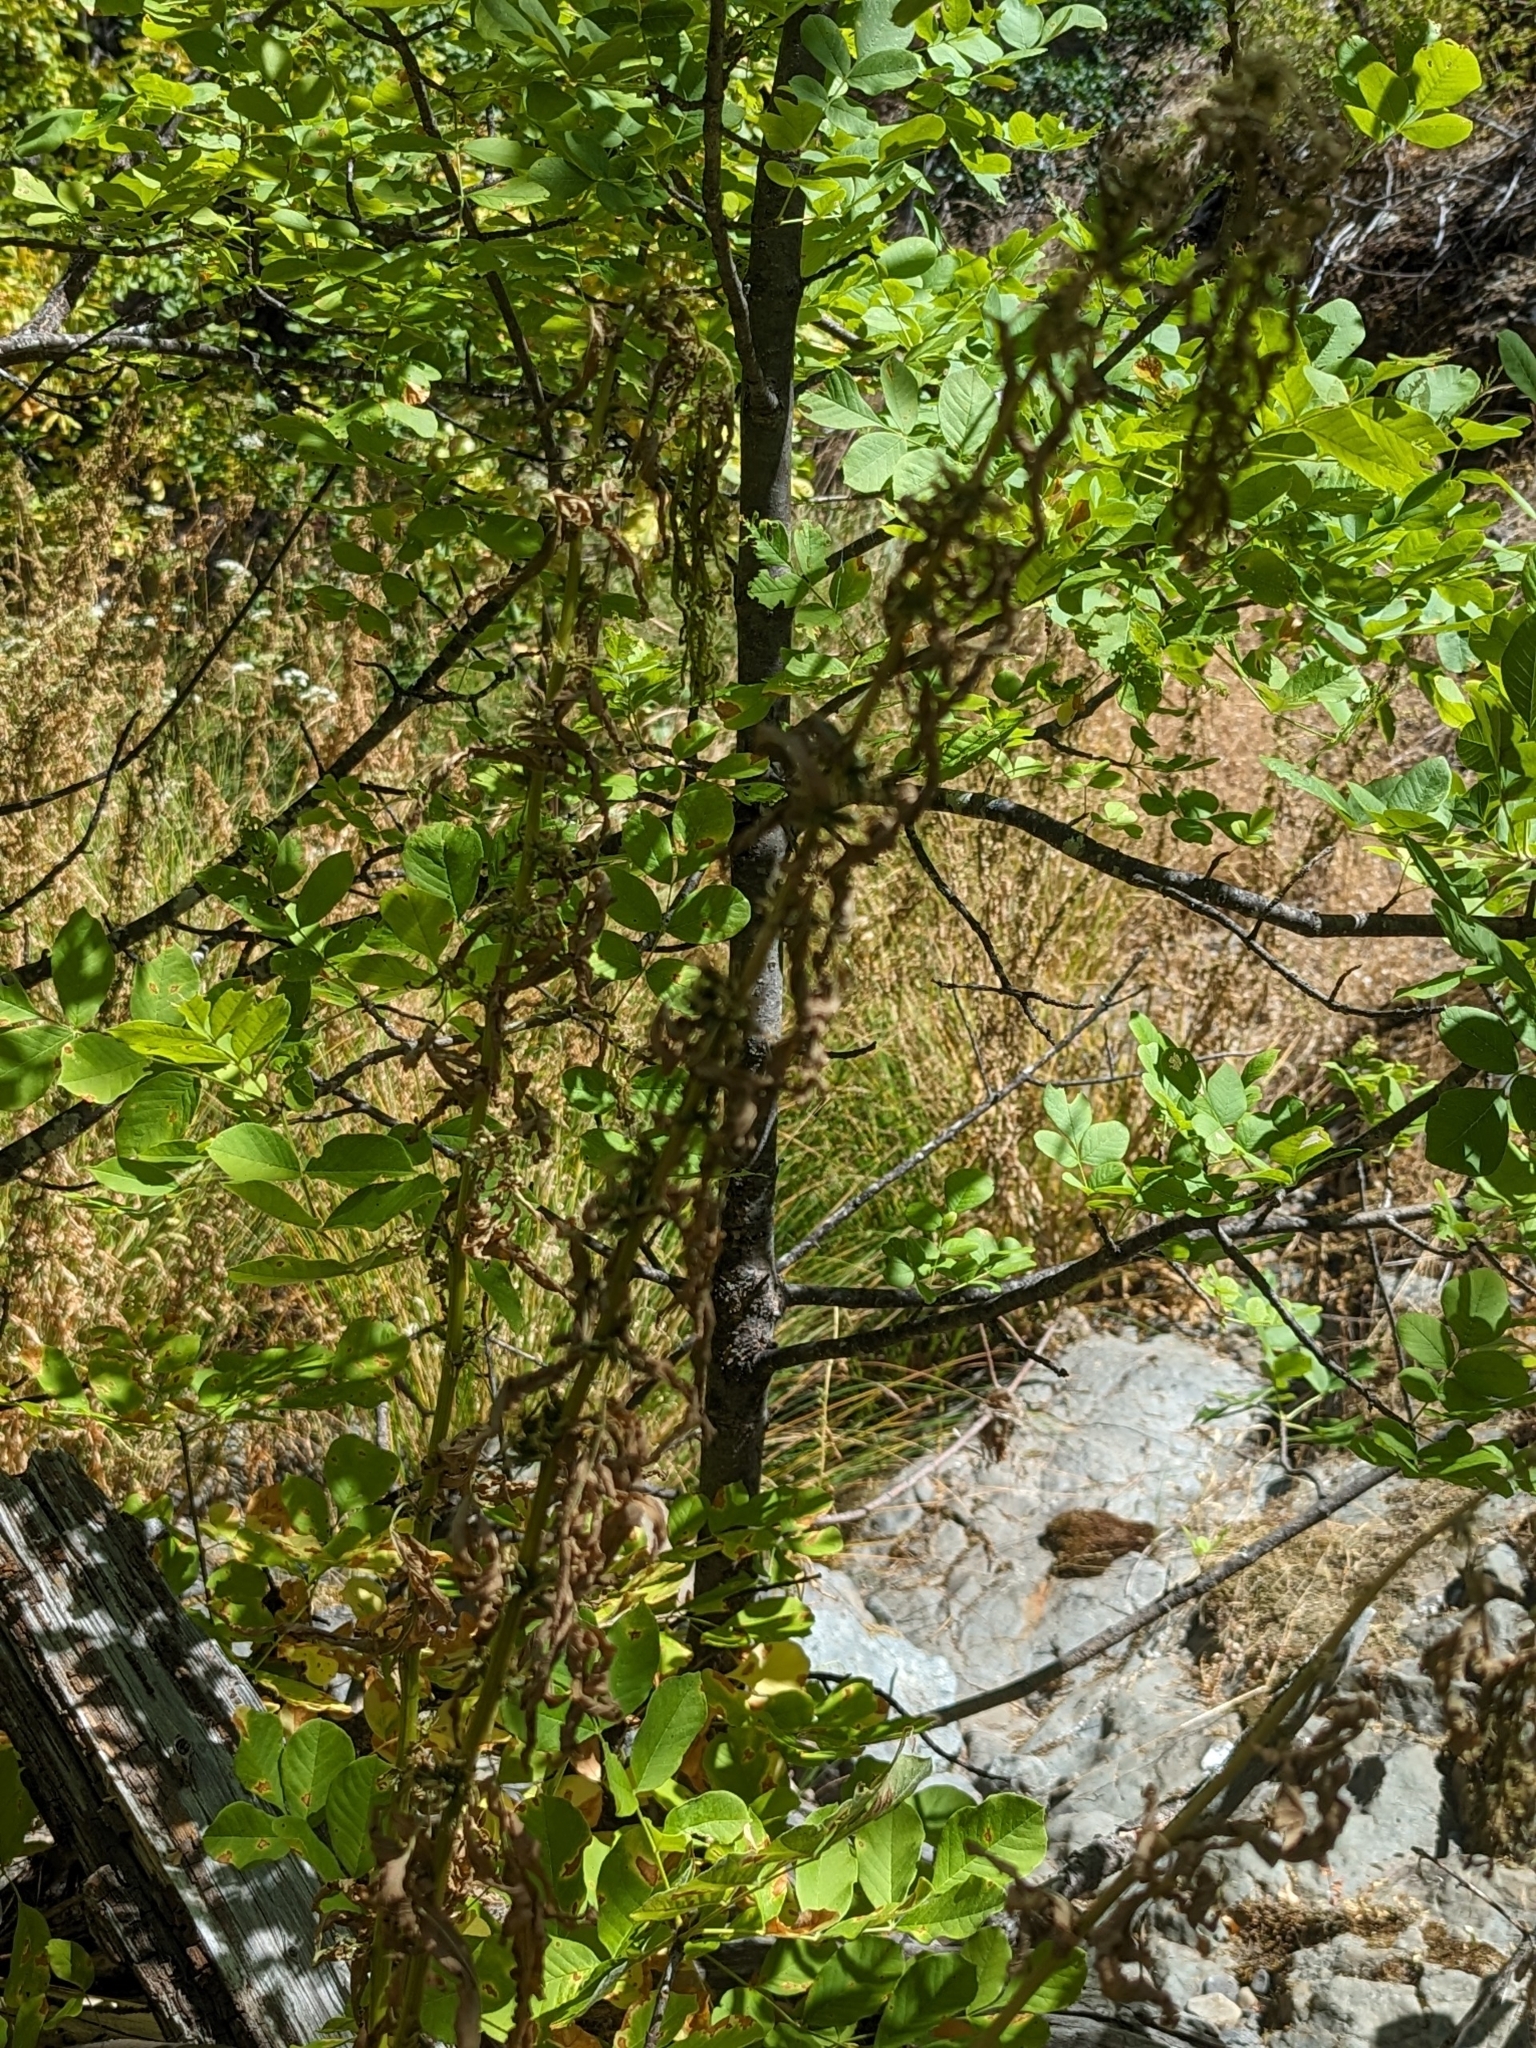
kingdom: Plantae
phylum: Tracheophyta
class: Magnoliopsida
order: Lamiales
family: Oleaceae
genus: Fraxinus
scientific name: Fraxinus latifolia
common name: Oregon ash
